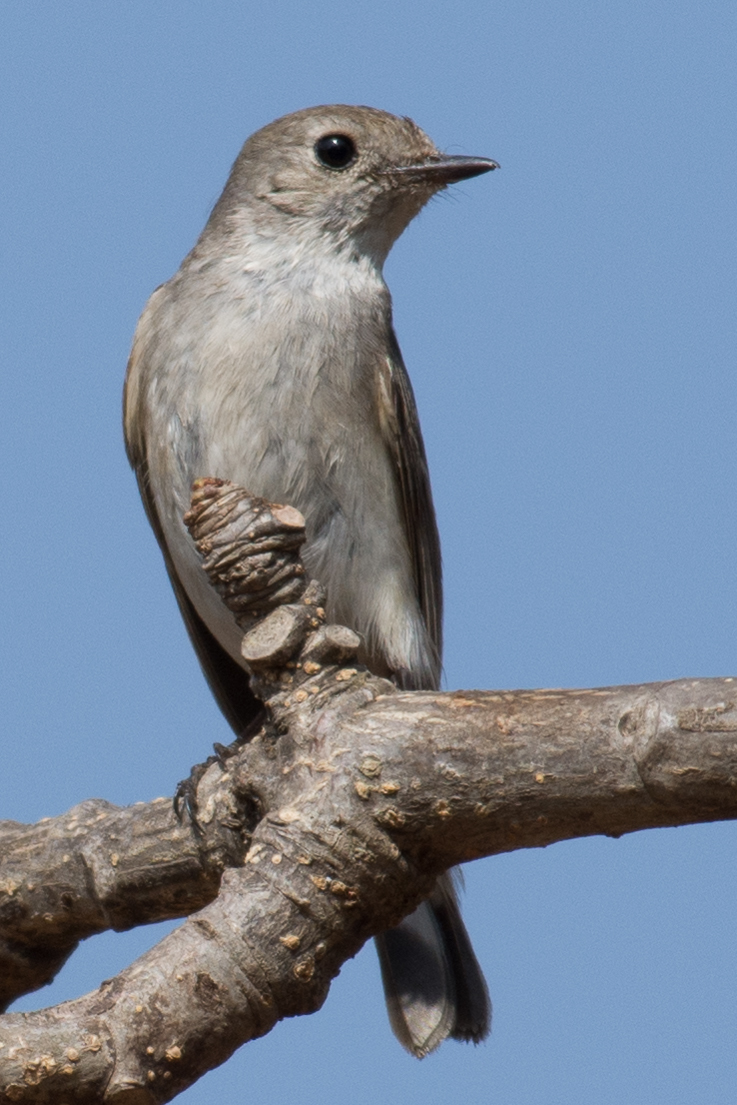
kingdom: Animalia
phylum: Chordata
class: Aves
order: Passeriformes
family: Muscicapidae
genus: Ficedula
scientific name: Ficedula albicilla
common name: Taiga flycatcher
